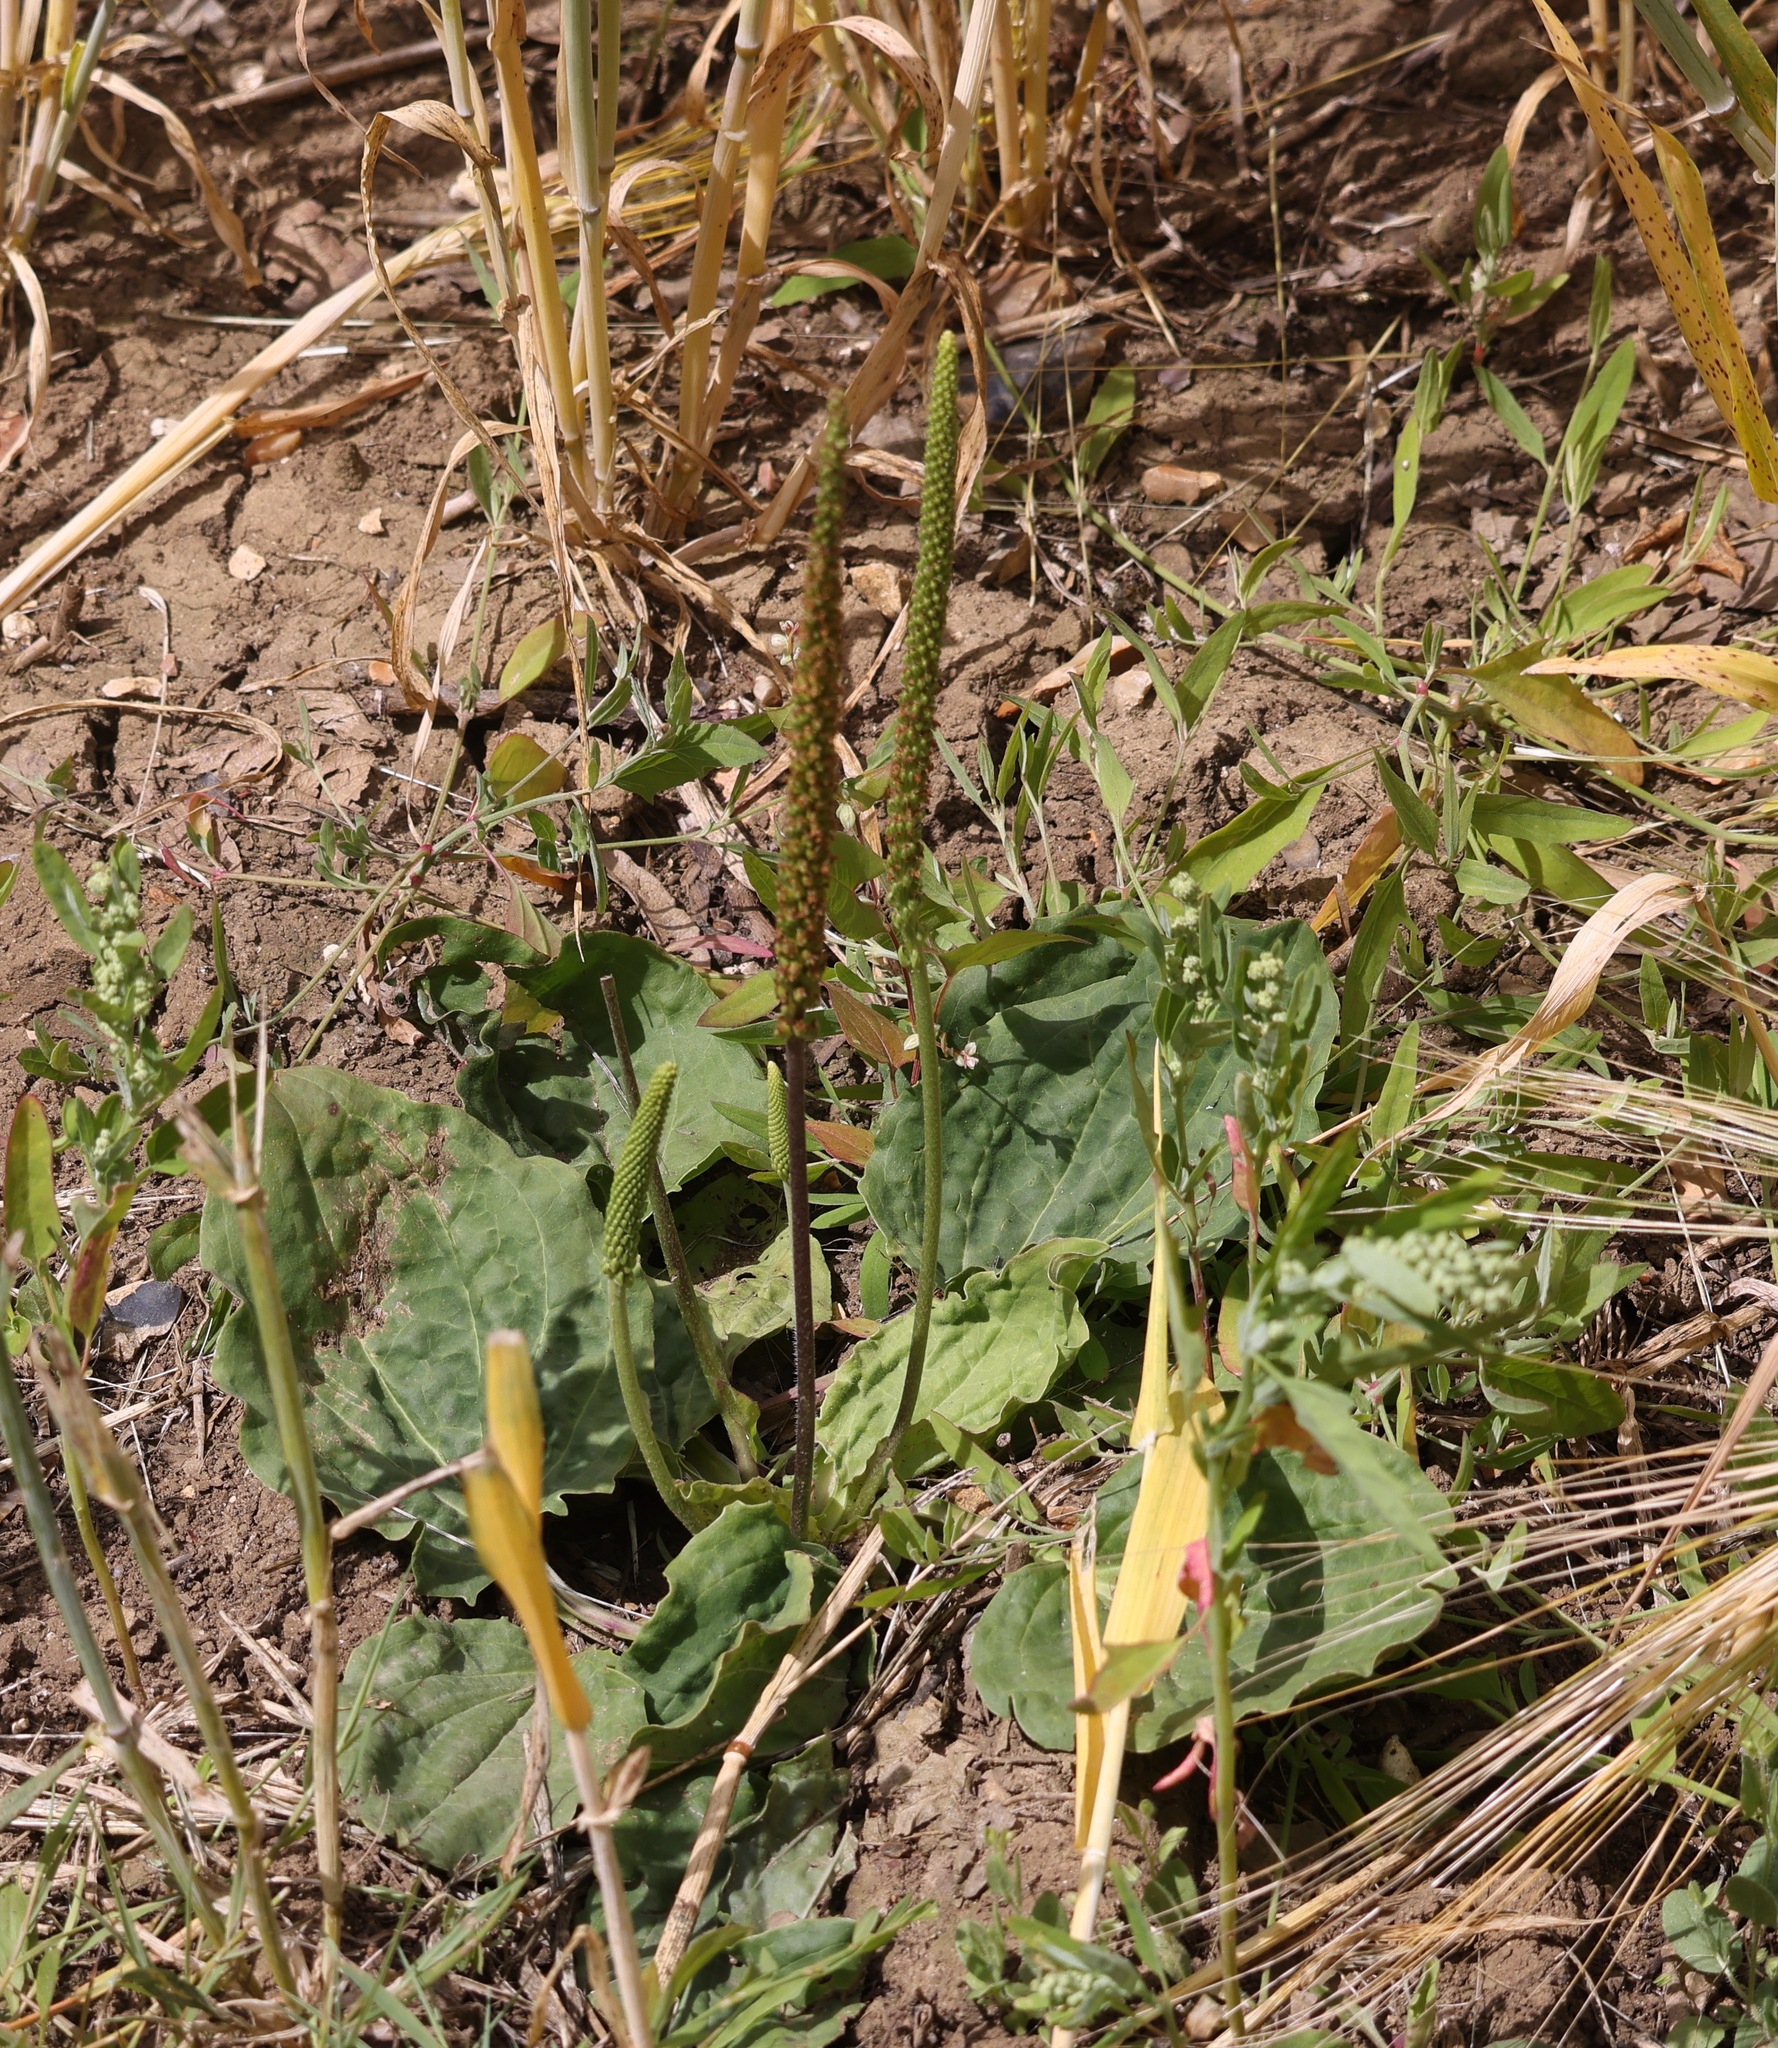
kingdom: Plantae
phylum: Tracheophyta
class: Magnoliopsida
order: Lamiales
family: Plantaginaceae
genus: Plantago
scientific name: Plantago major
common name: Common plantain
